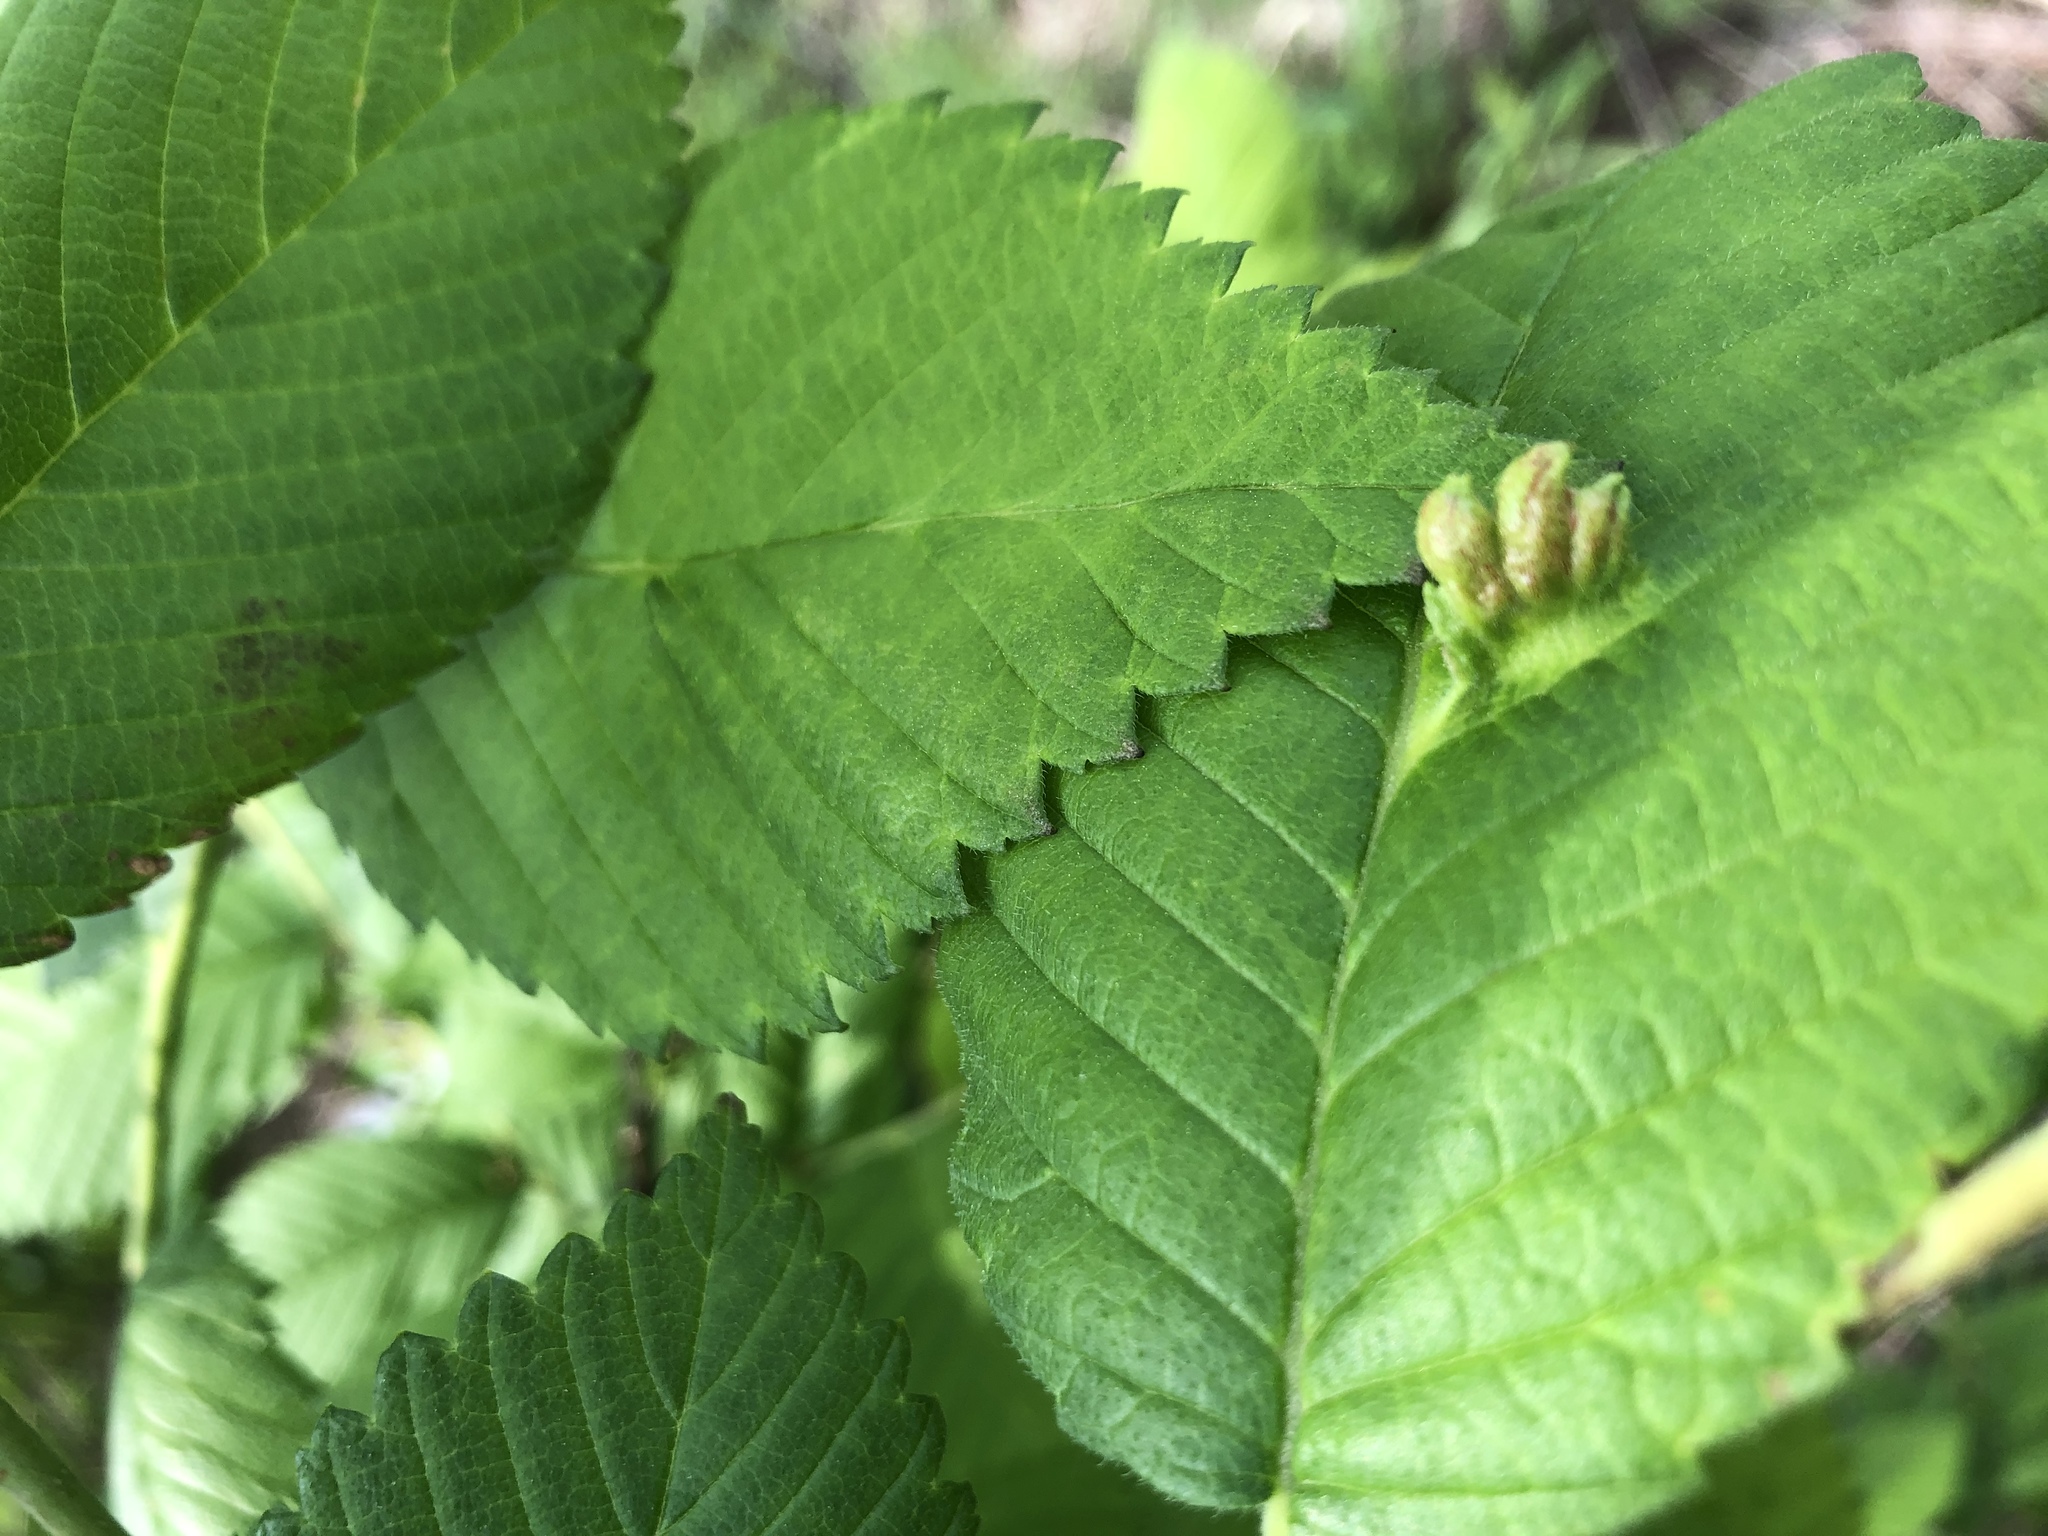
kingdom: Animalia
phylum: Arthropoda
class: Insecta
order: Hemiptera
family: Aphididae
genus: Colopha
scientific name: Colopha ulmicola
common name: Elm cockscombgall aphid
